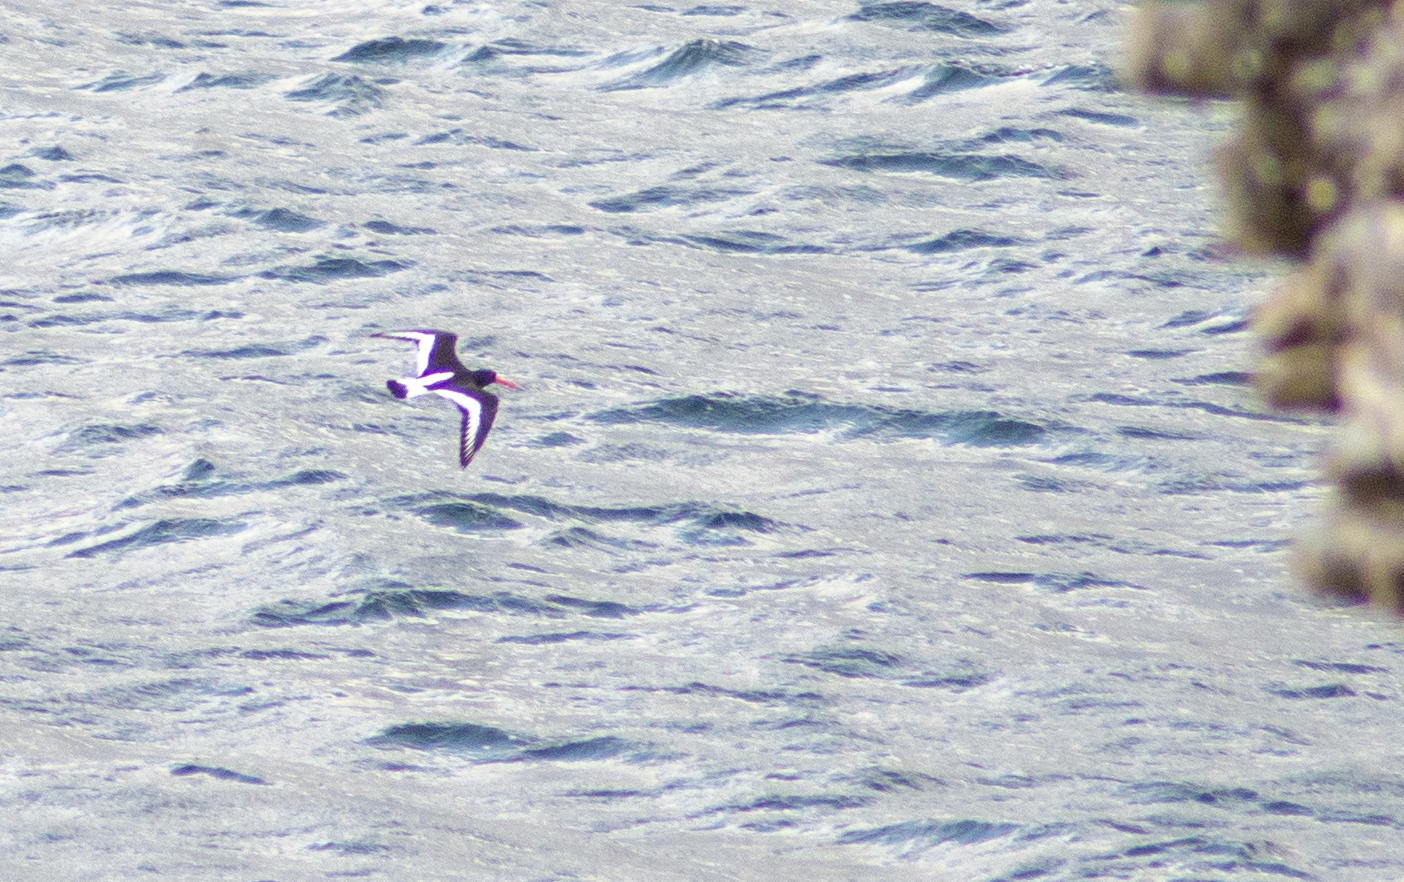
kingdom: Animalia
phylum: Chordata
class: Aves
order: Charadriiformes
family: Haematopodidae
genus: Haematopus
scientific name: Haematopus ostralegus
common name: Eurasian oystercatcher
